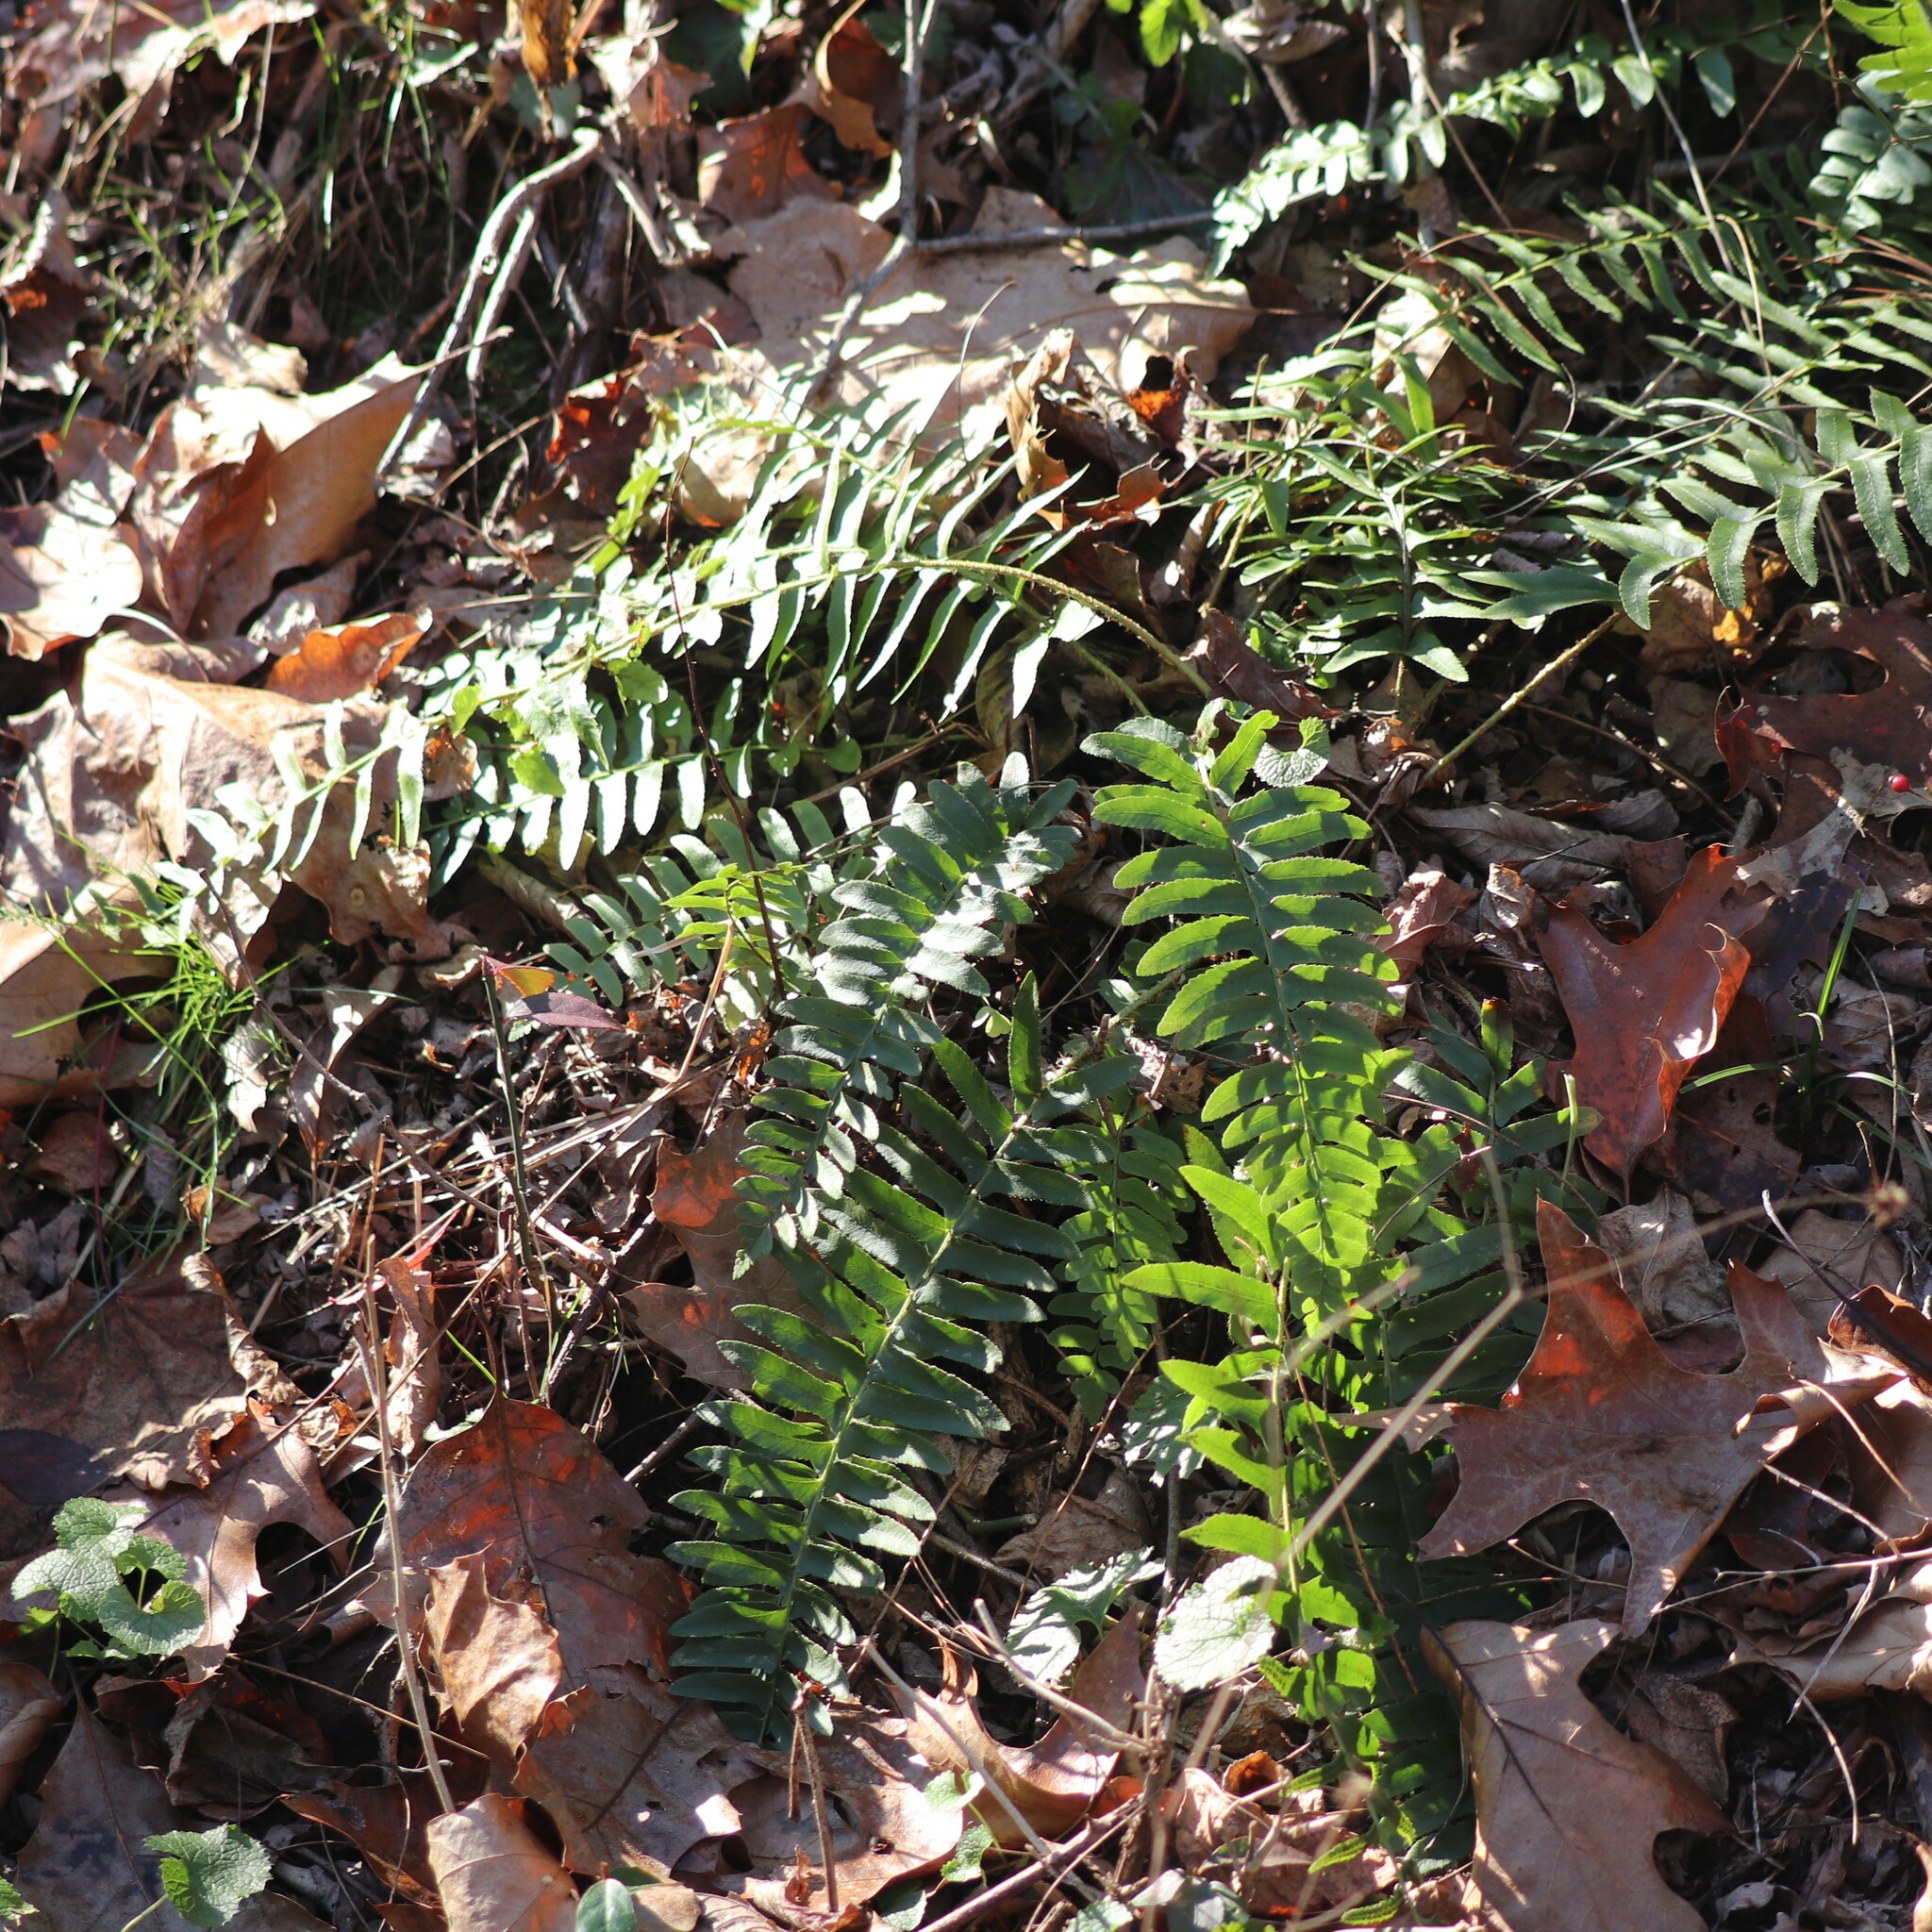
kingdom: Plantae
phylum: Tracheophyta
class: Polypodiopsida
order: Polypodiales
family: Dryopteridaceae
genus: Polystichum
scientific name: Polystichum acrostichoides
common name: Christmas fern
